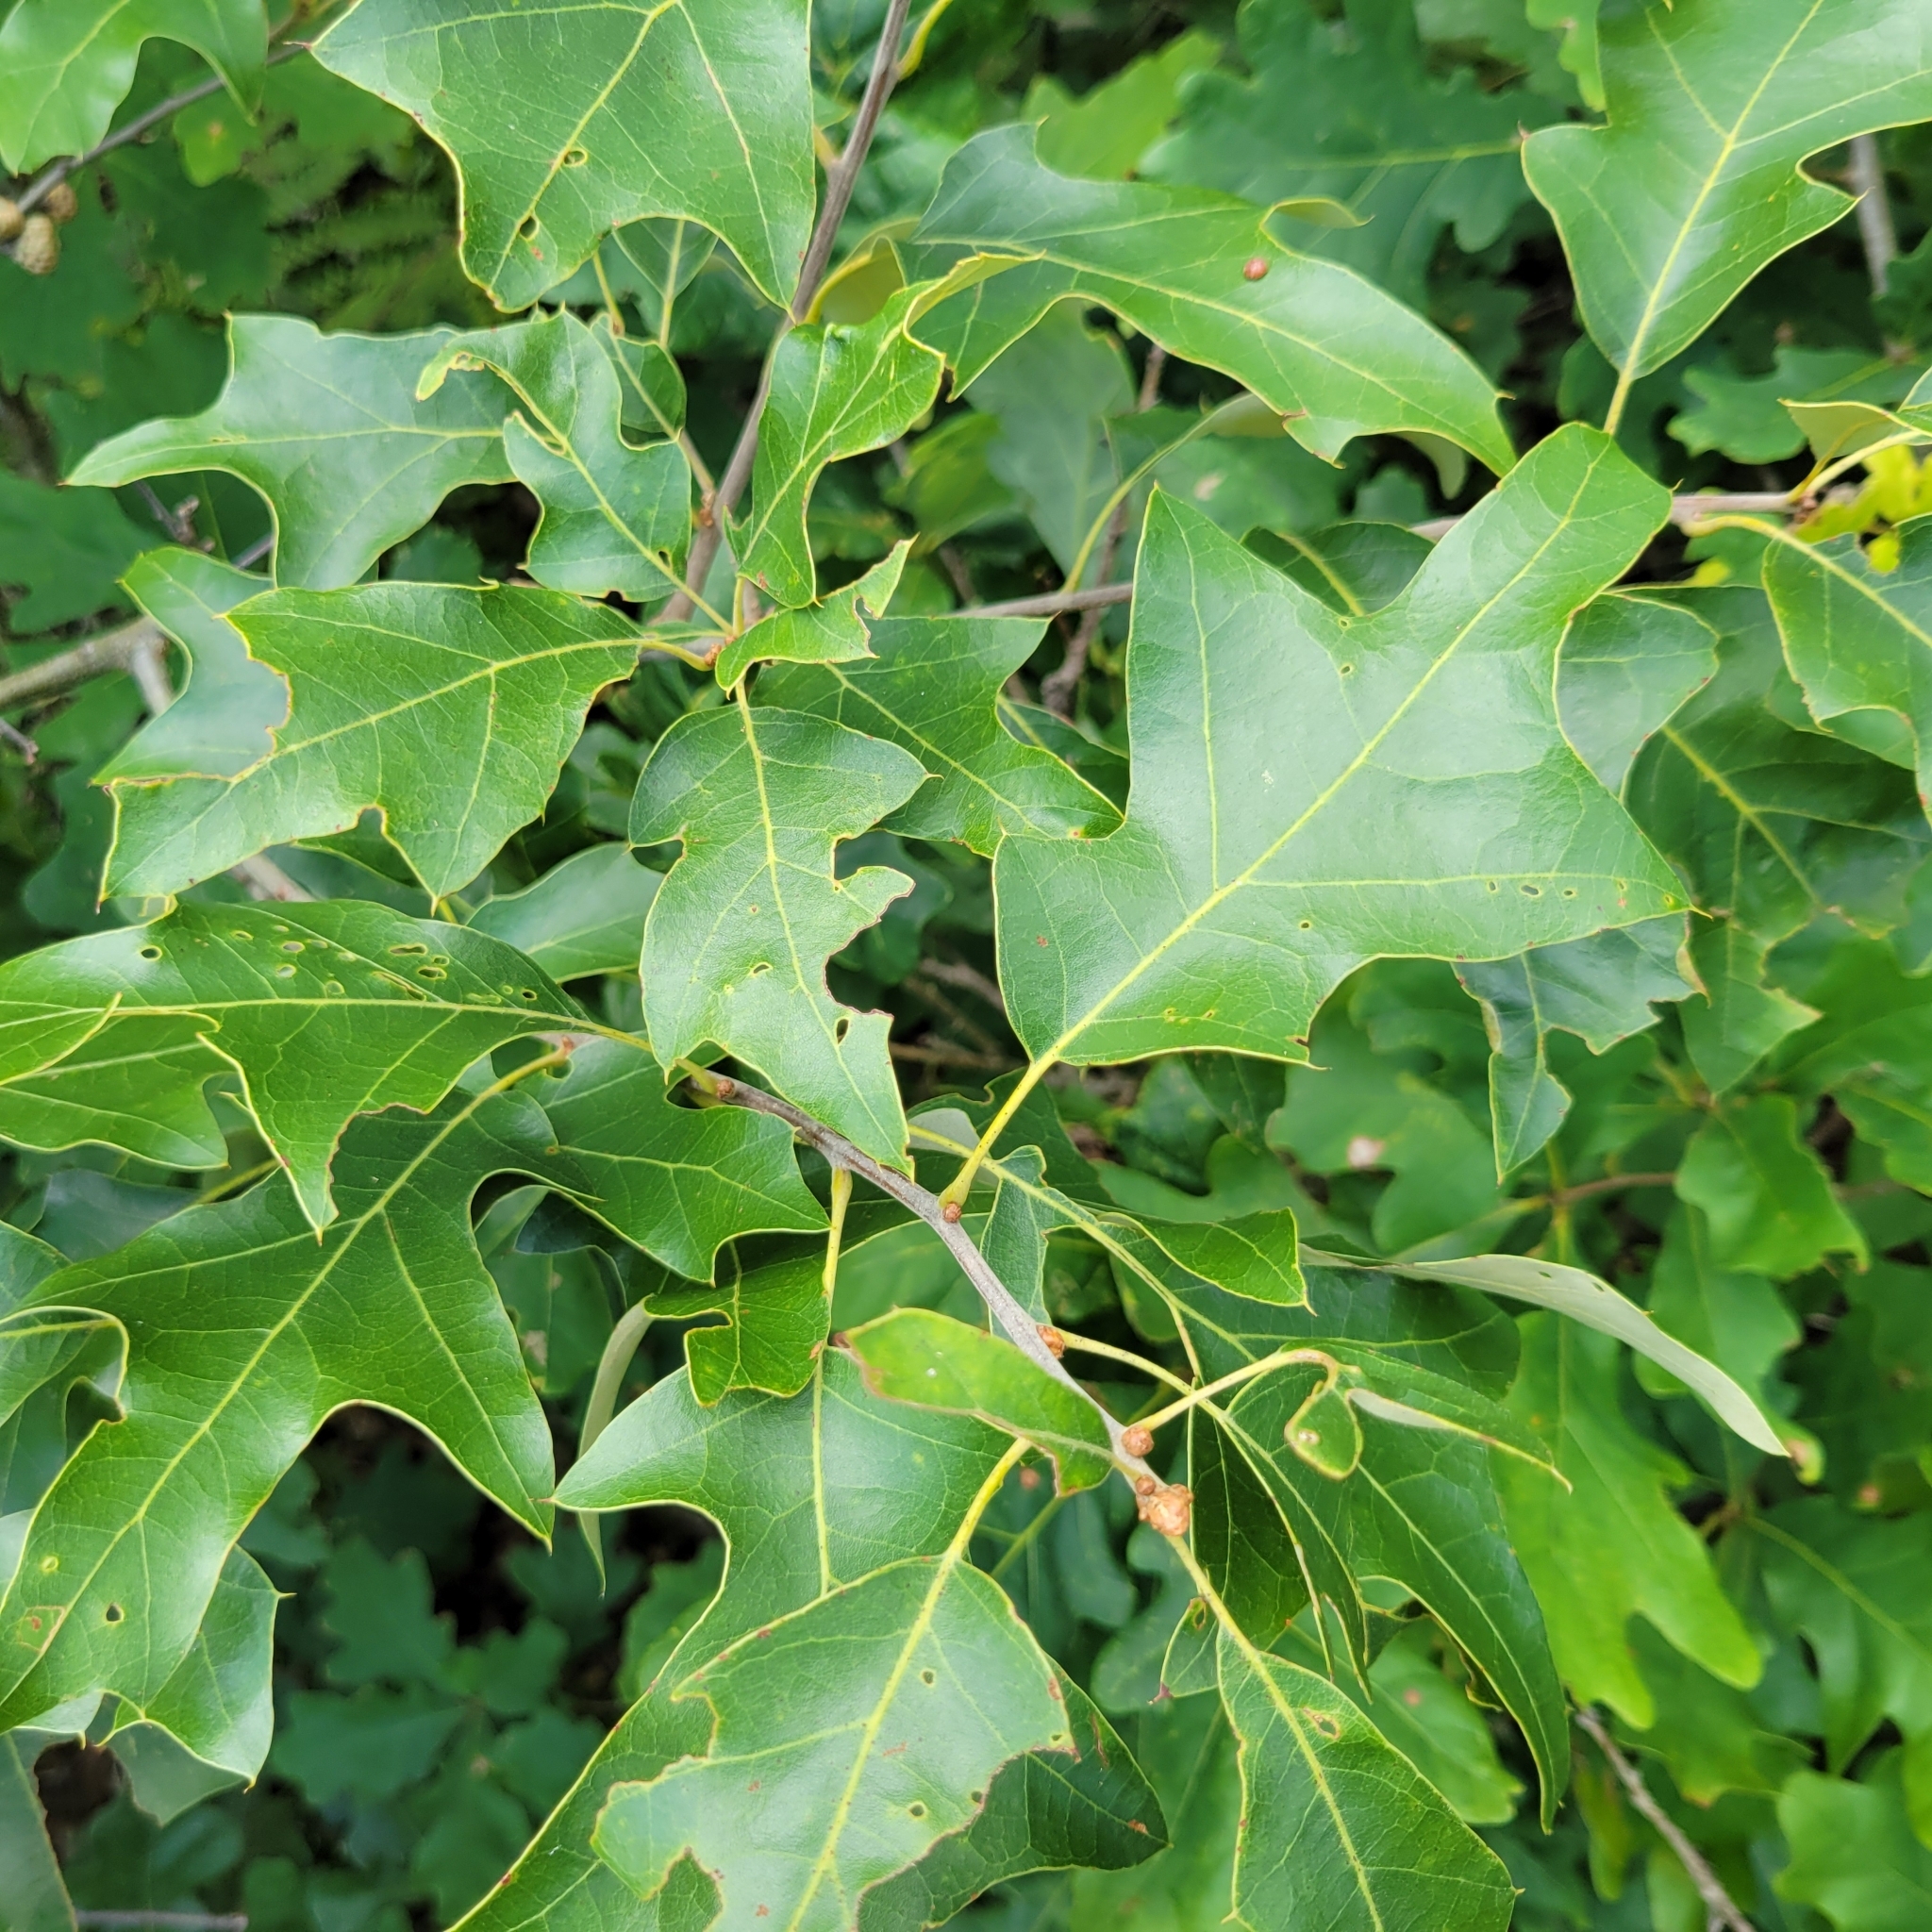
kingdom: Plantae
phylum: Tracheophyta
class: Magnoliopsida
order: Fagales
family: Fagaceae
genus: Quercus
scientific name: Quercus ilicifolia
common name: Bear oak
